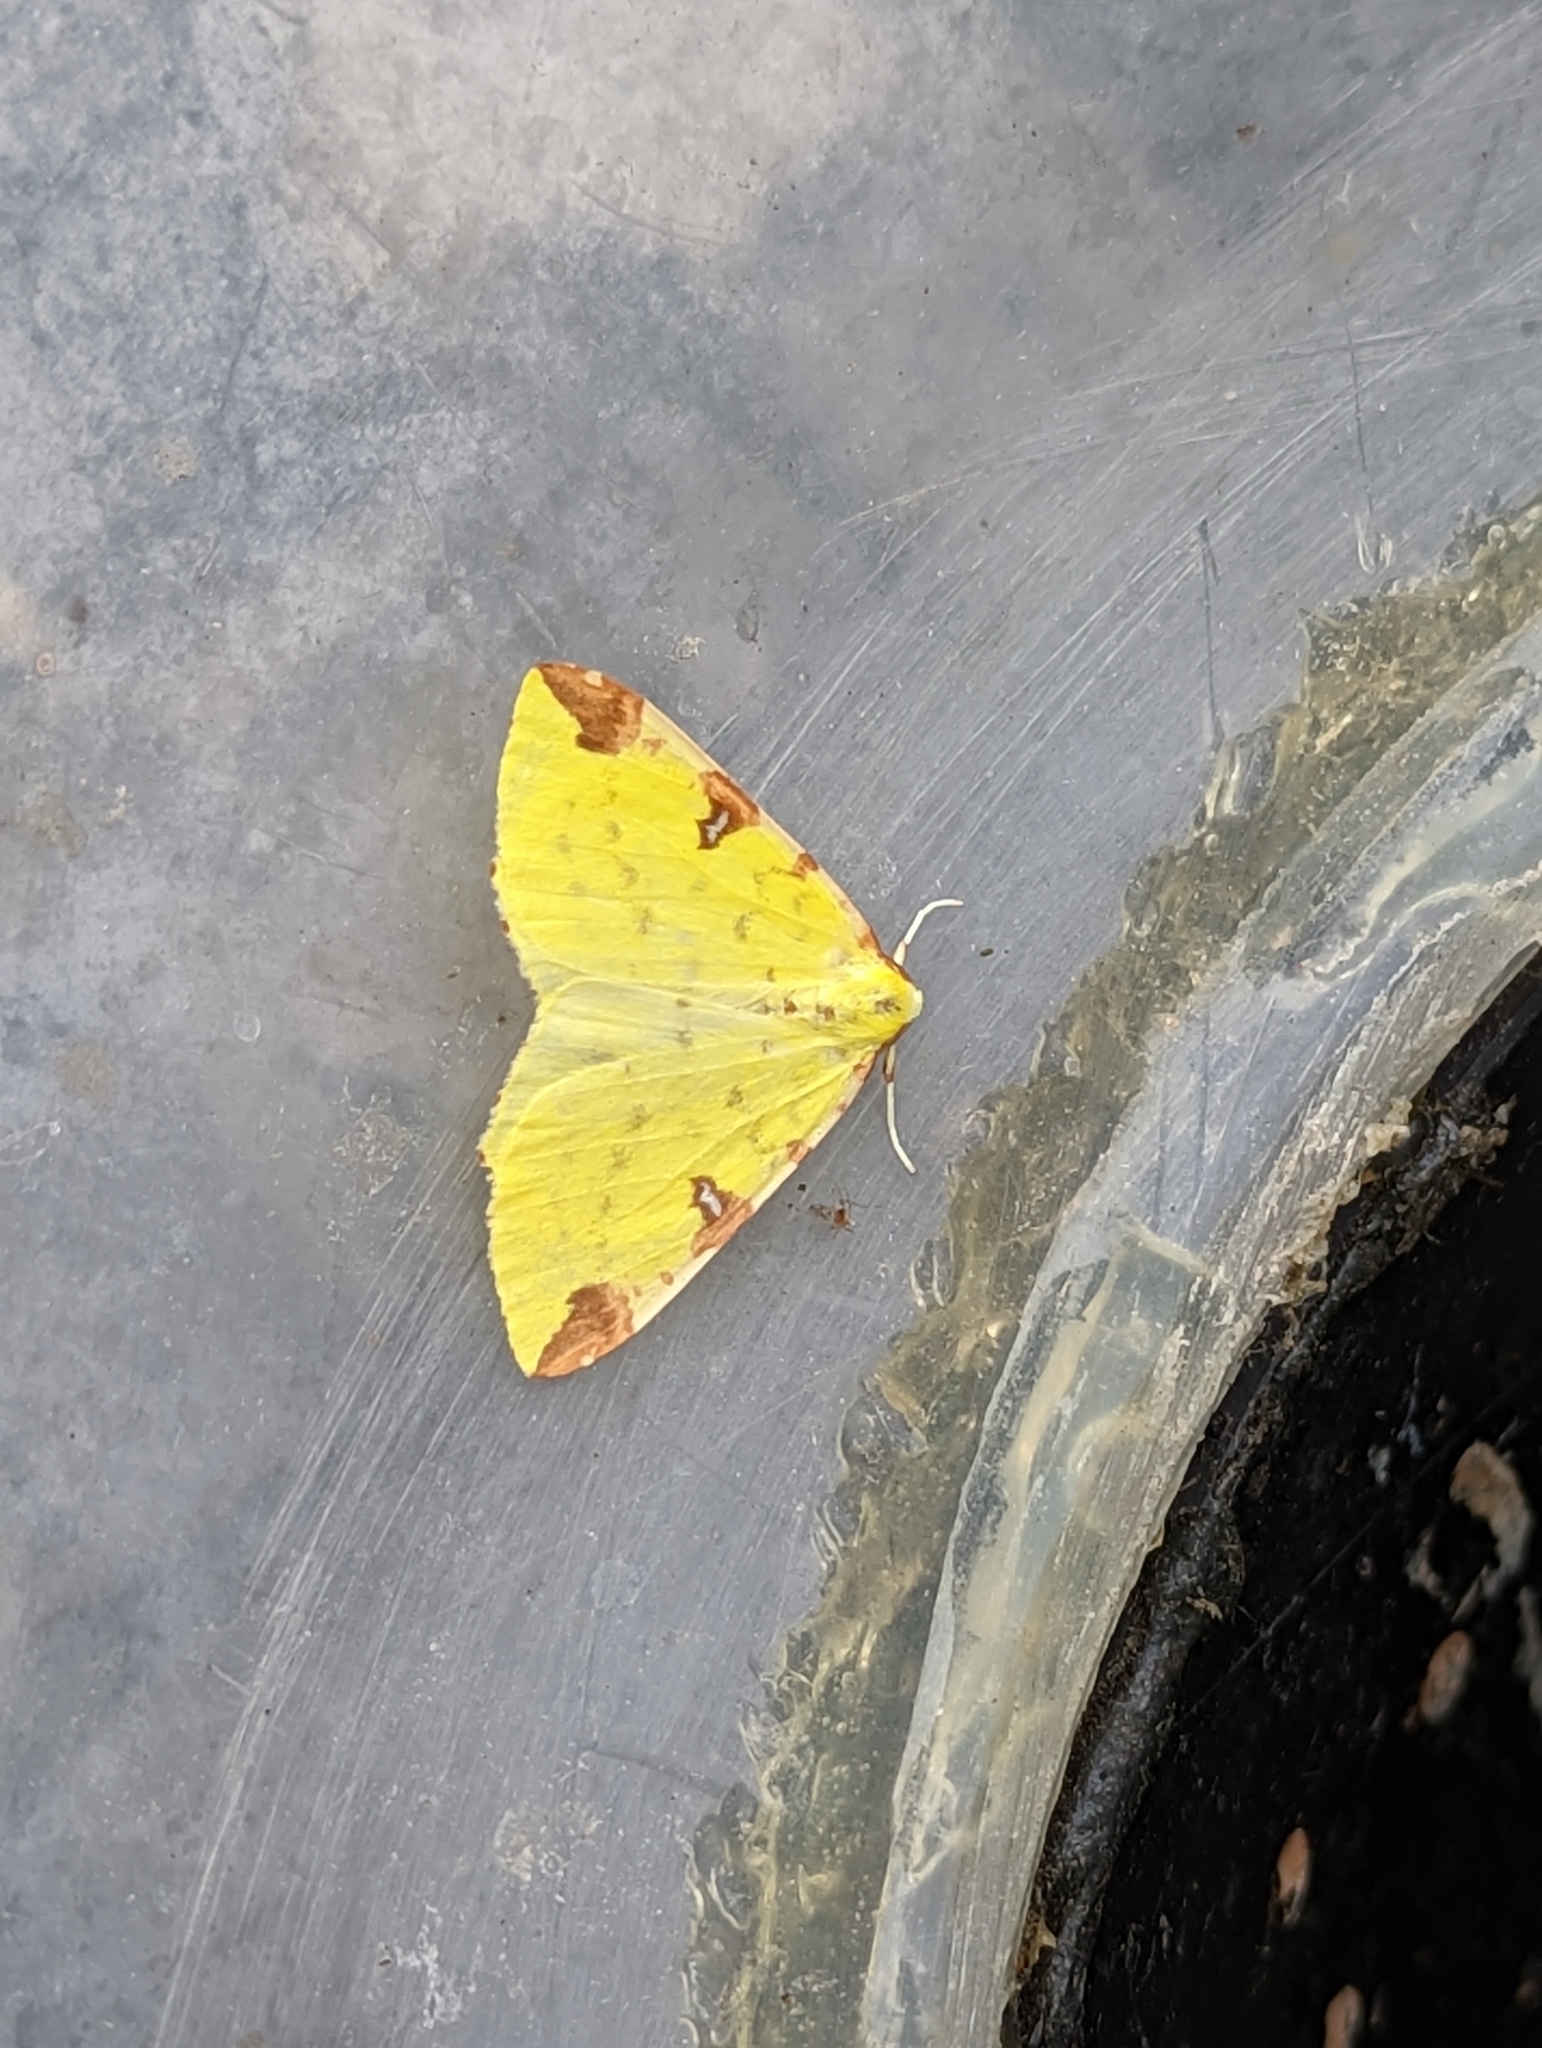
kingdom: Animalia
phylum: Arthropoda
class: Insecta
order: Lepidoptera
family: Geometridae
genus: Opisthograptis
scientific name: Opisthograptis luteolata
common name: Brimstone moth
